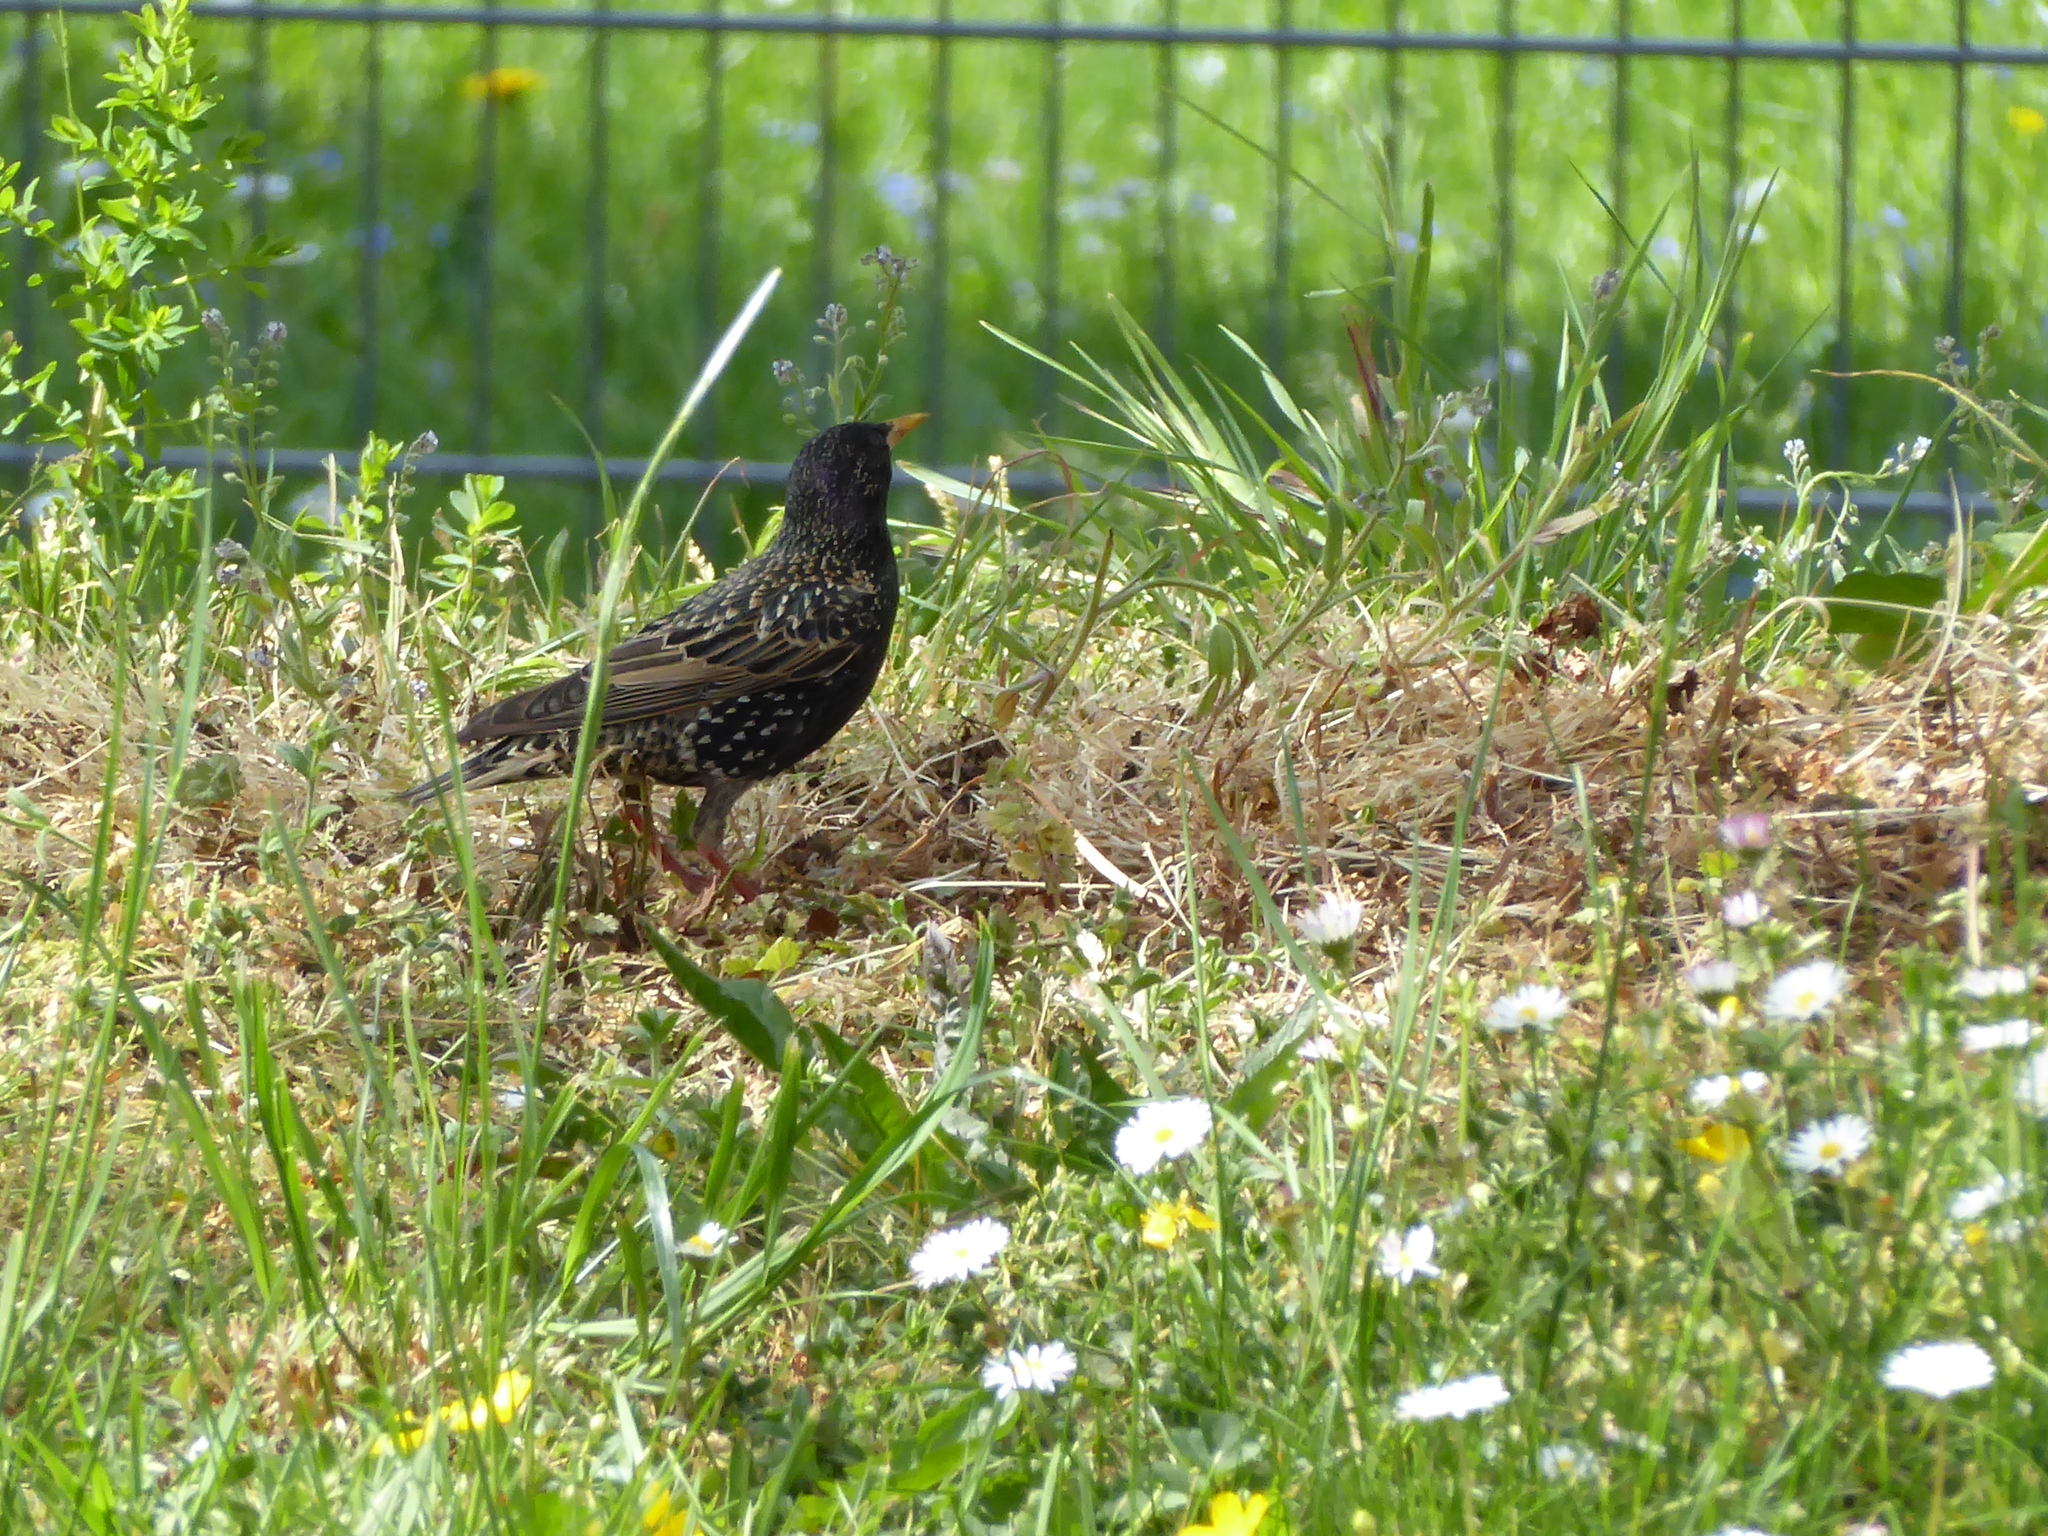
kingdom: Animalia
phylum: Chordata
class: Aves
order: Passeriformes
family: Sturnidae
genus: Sturnus
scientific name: Sturnus vulgaris
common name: Common starling
